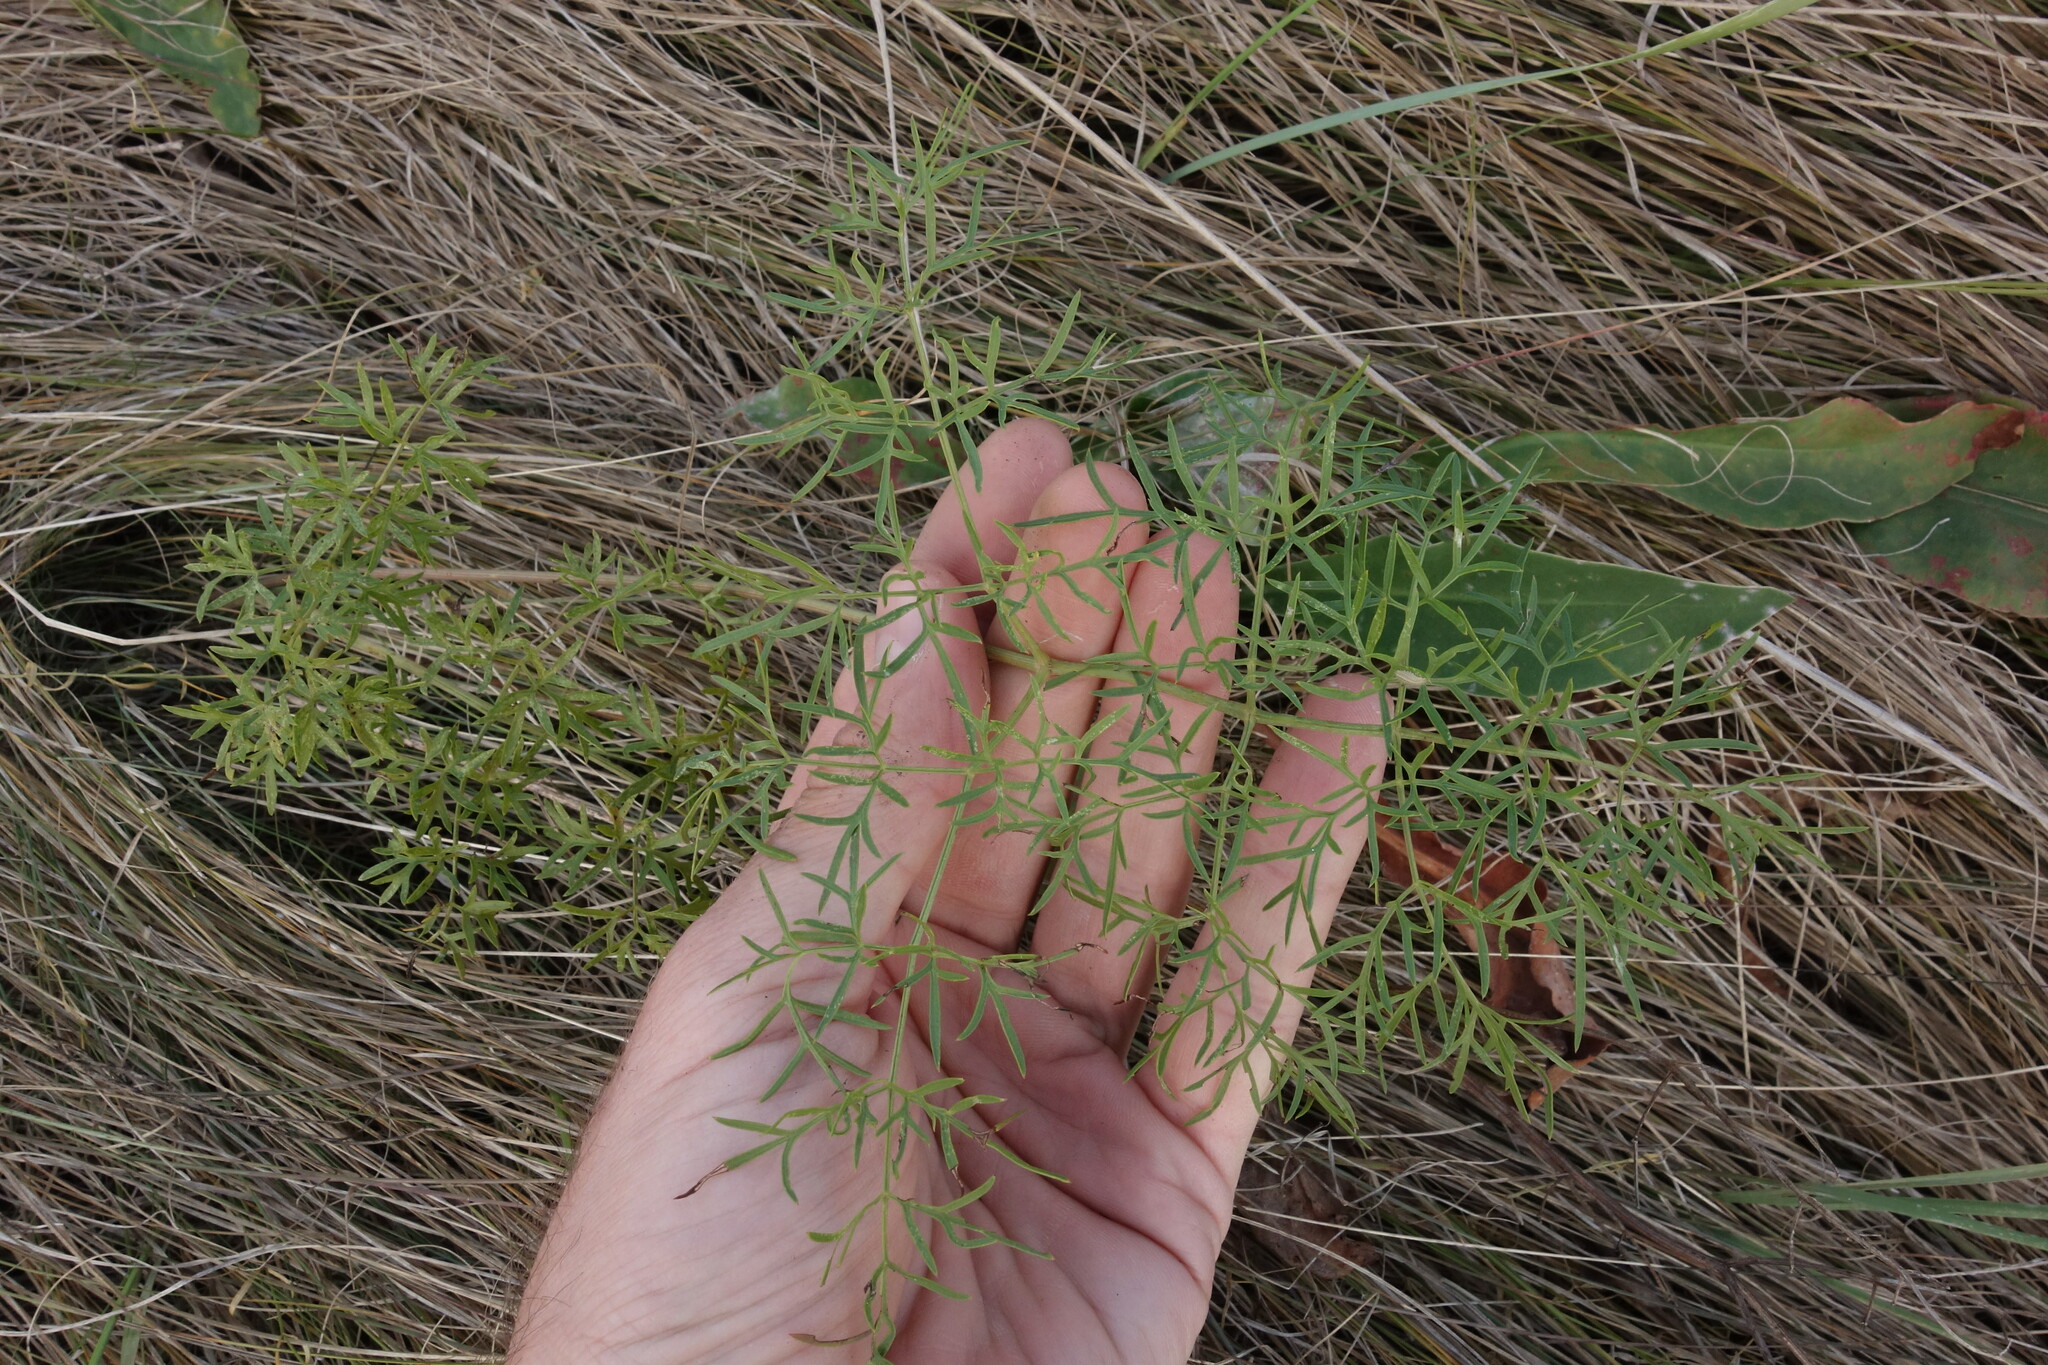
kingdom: Plantae
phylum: Tracheophyta
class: Magnoliopsida
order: Apiales
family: Apiaceae
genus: Silaum
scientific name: Silaum silaus
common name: Pepper-saxifrage
